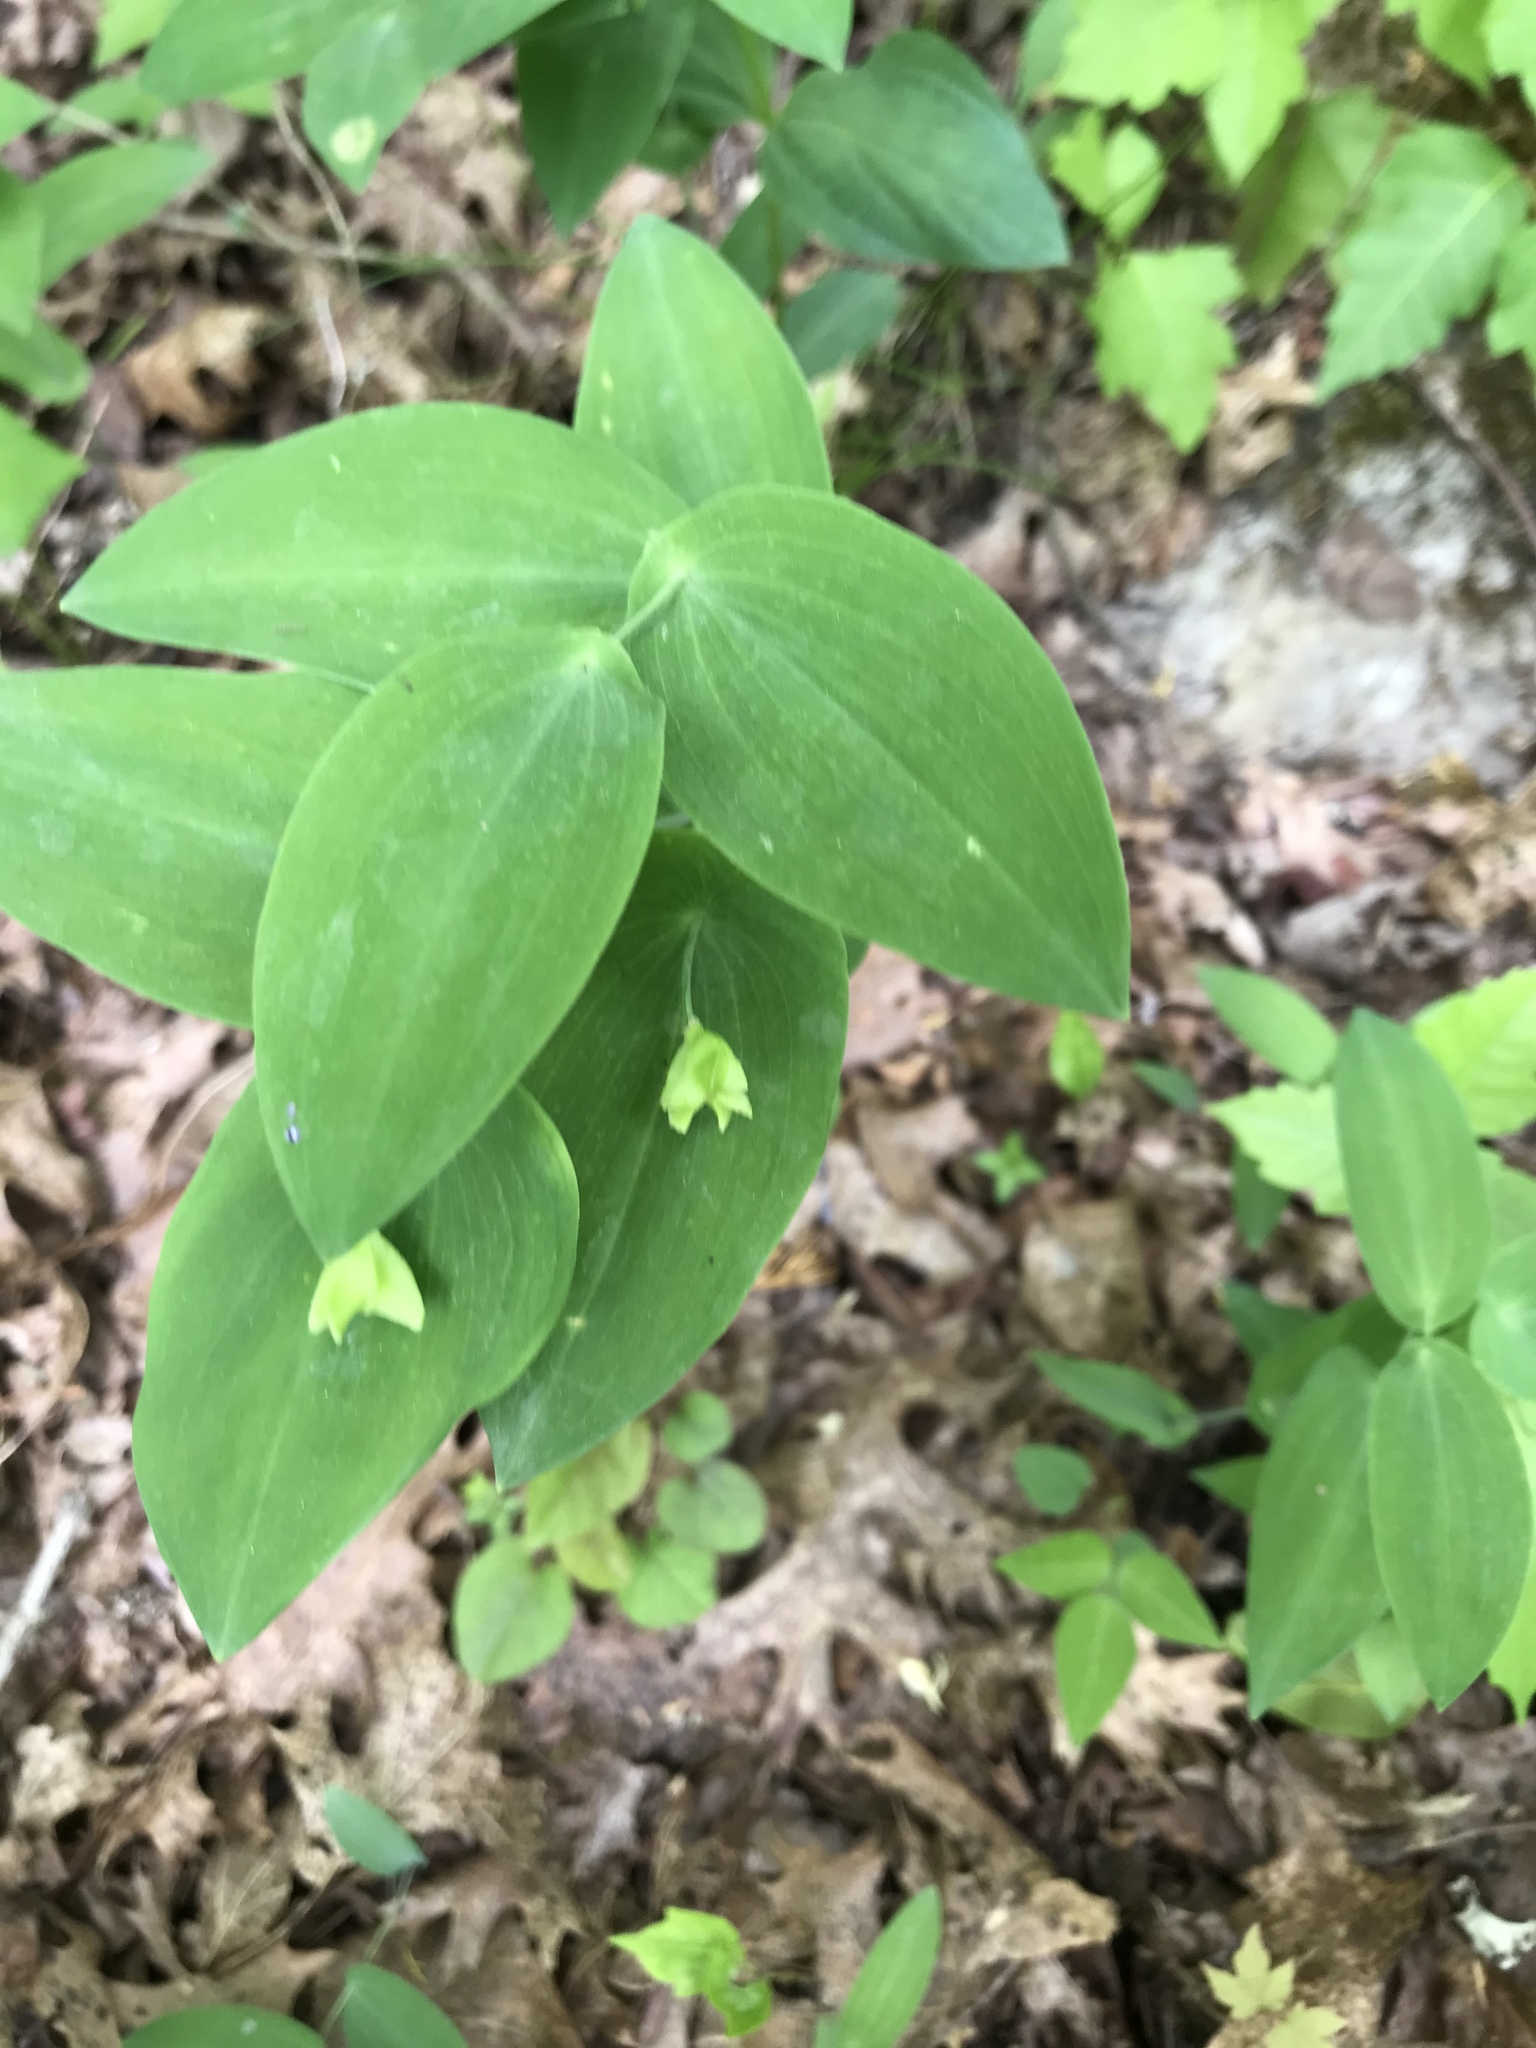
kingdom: Plantae
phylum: Tracheophyta
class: Liliopsida
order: Liliales
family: Colchicaceae
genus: Uvularia
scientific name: Uvularia perfoliata
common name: Perfoliate bellwort
